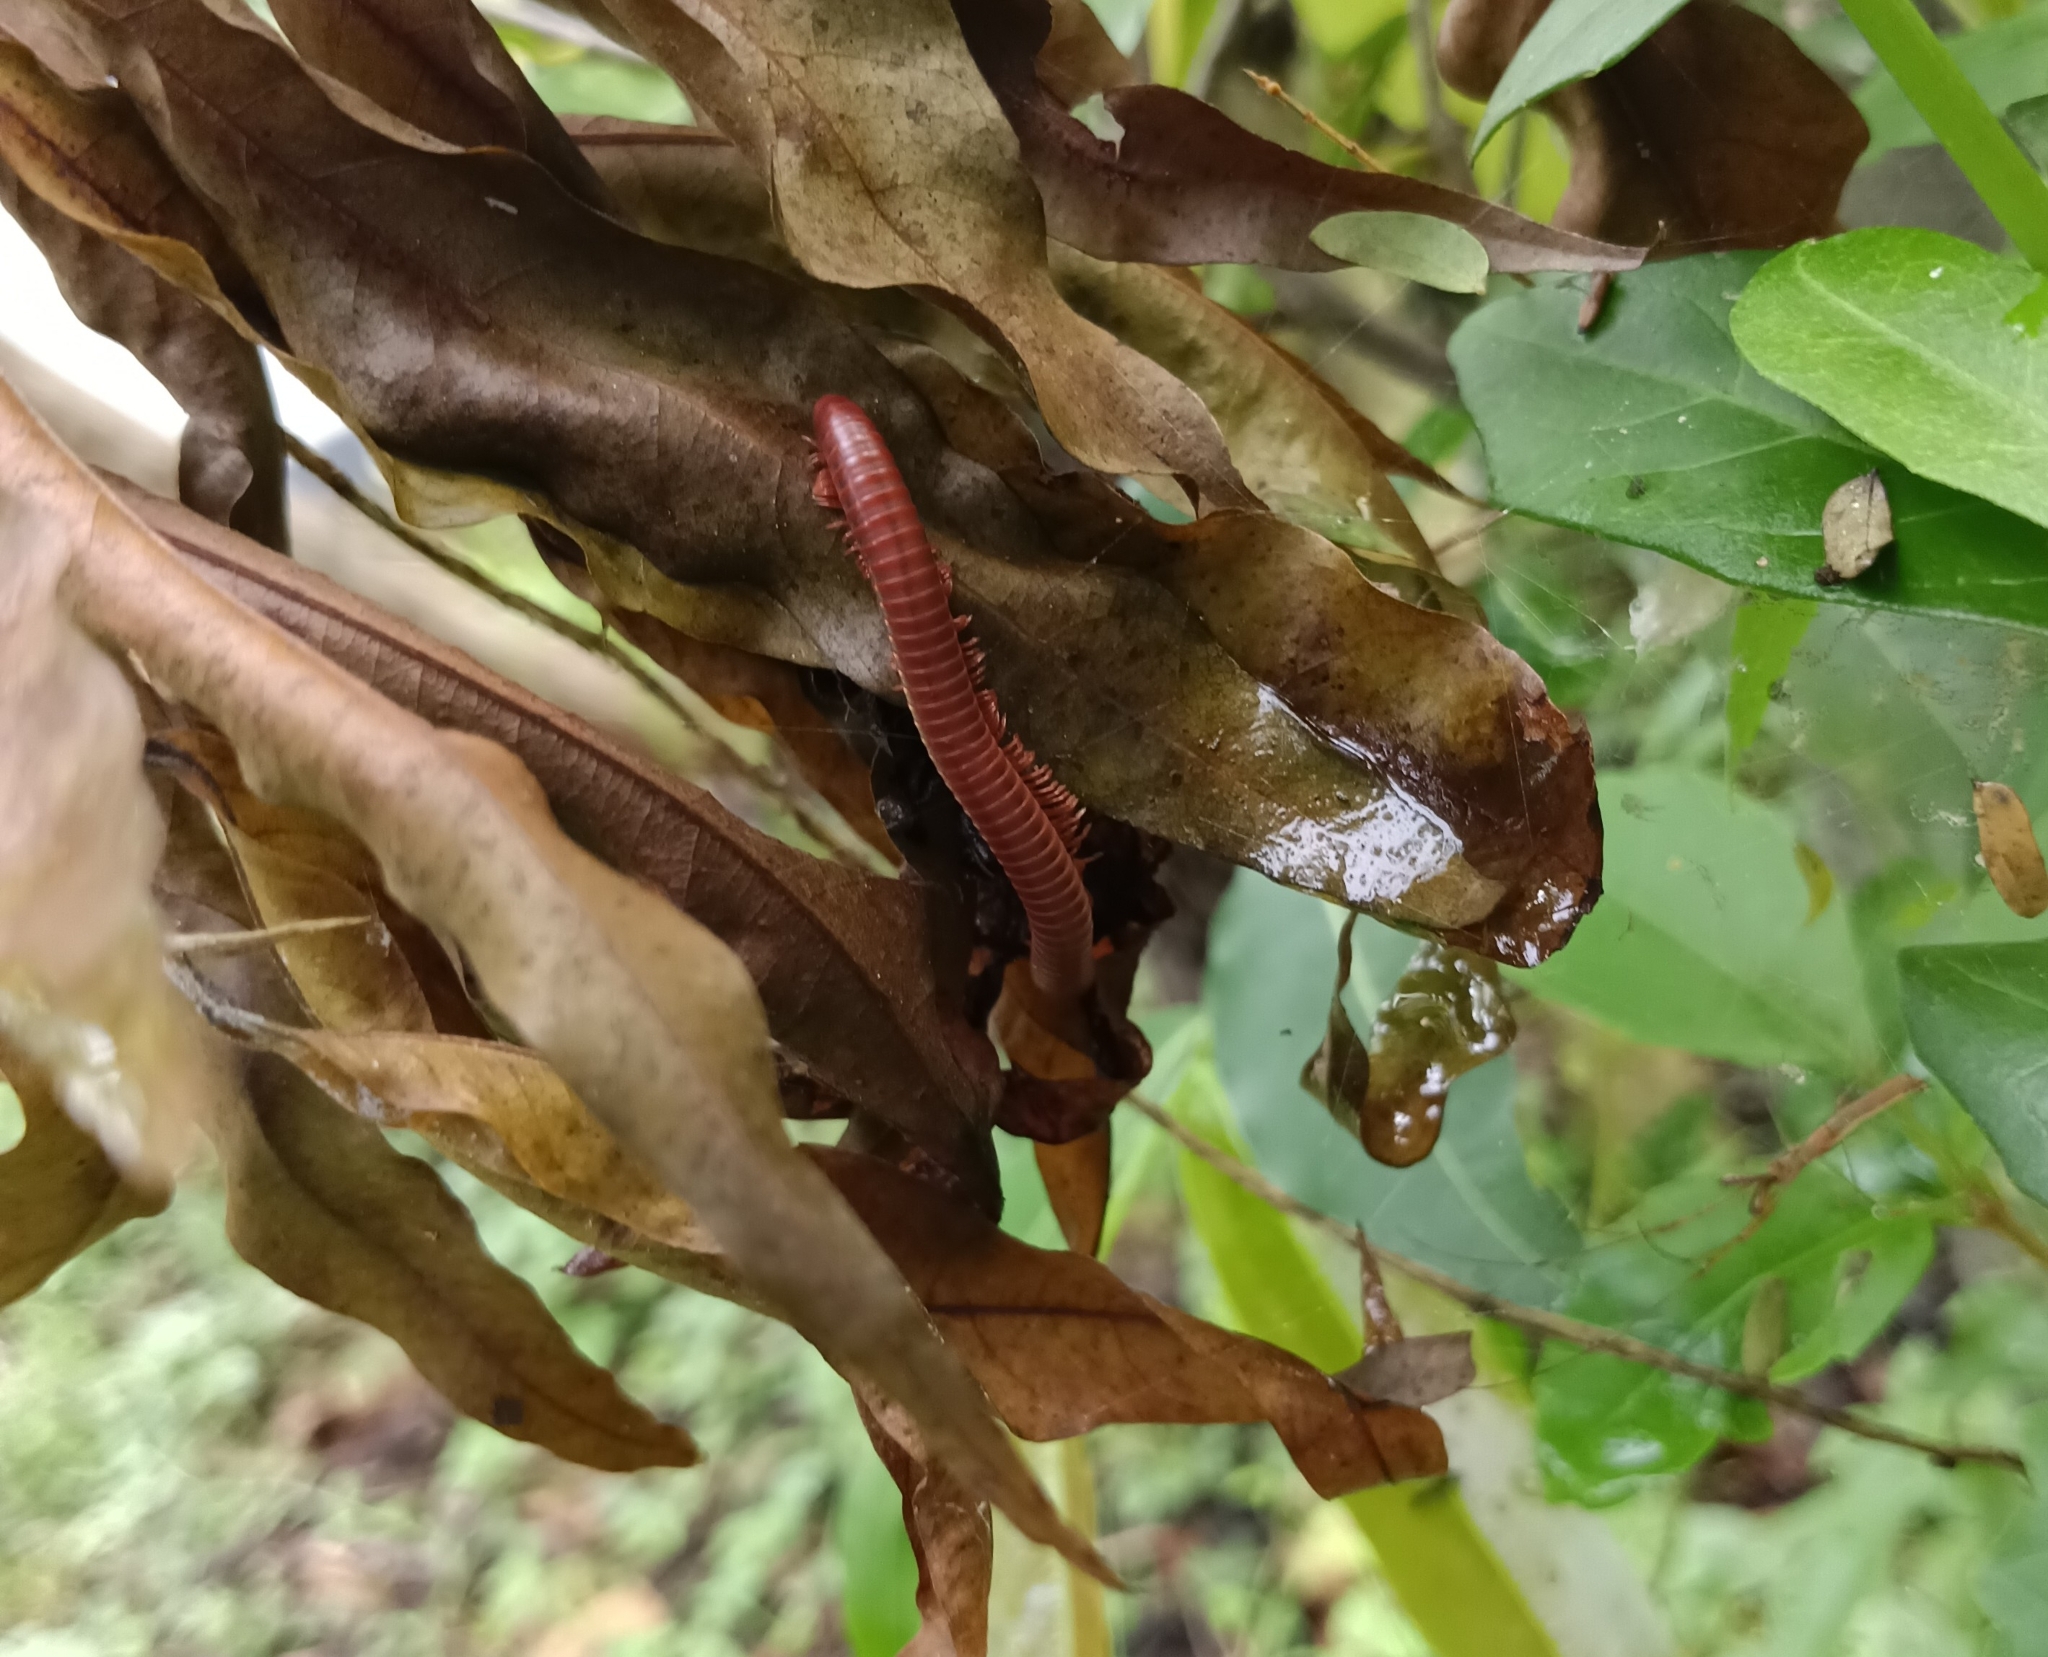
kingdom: Animalia
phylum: Arthropoda
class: Diplopoda
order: Spirobolida
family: Pachybolidae
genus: Trigoniulus
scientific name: Trigoniulus corallinus
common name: Millipede
